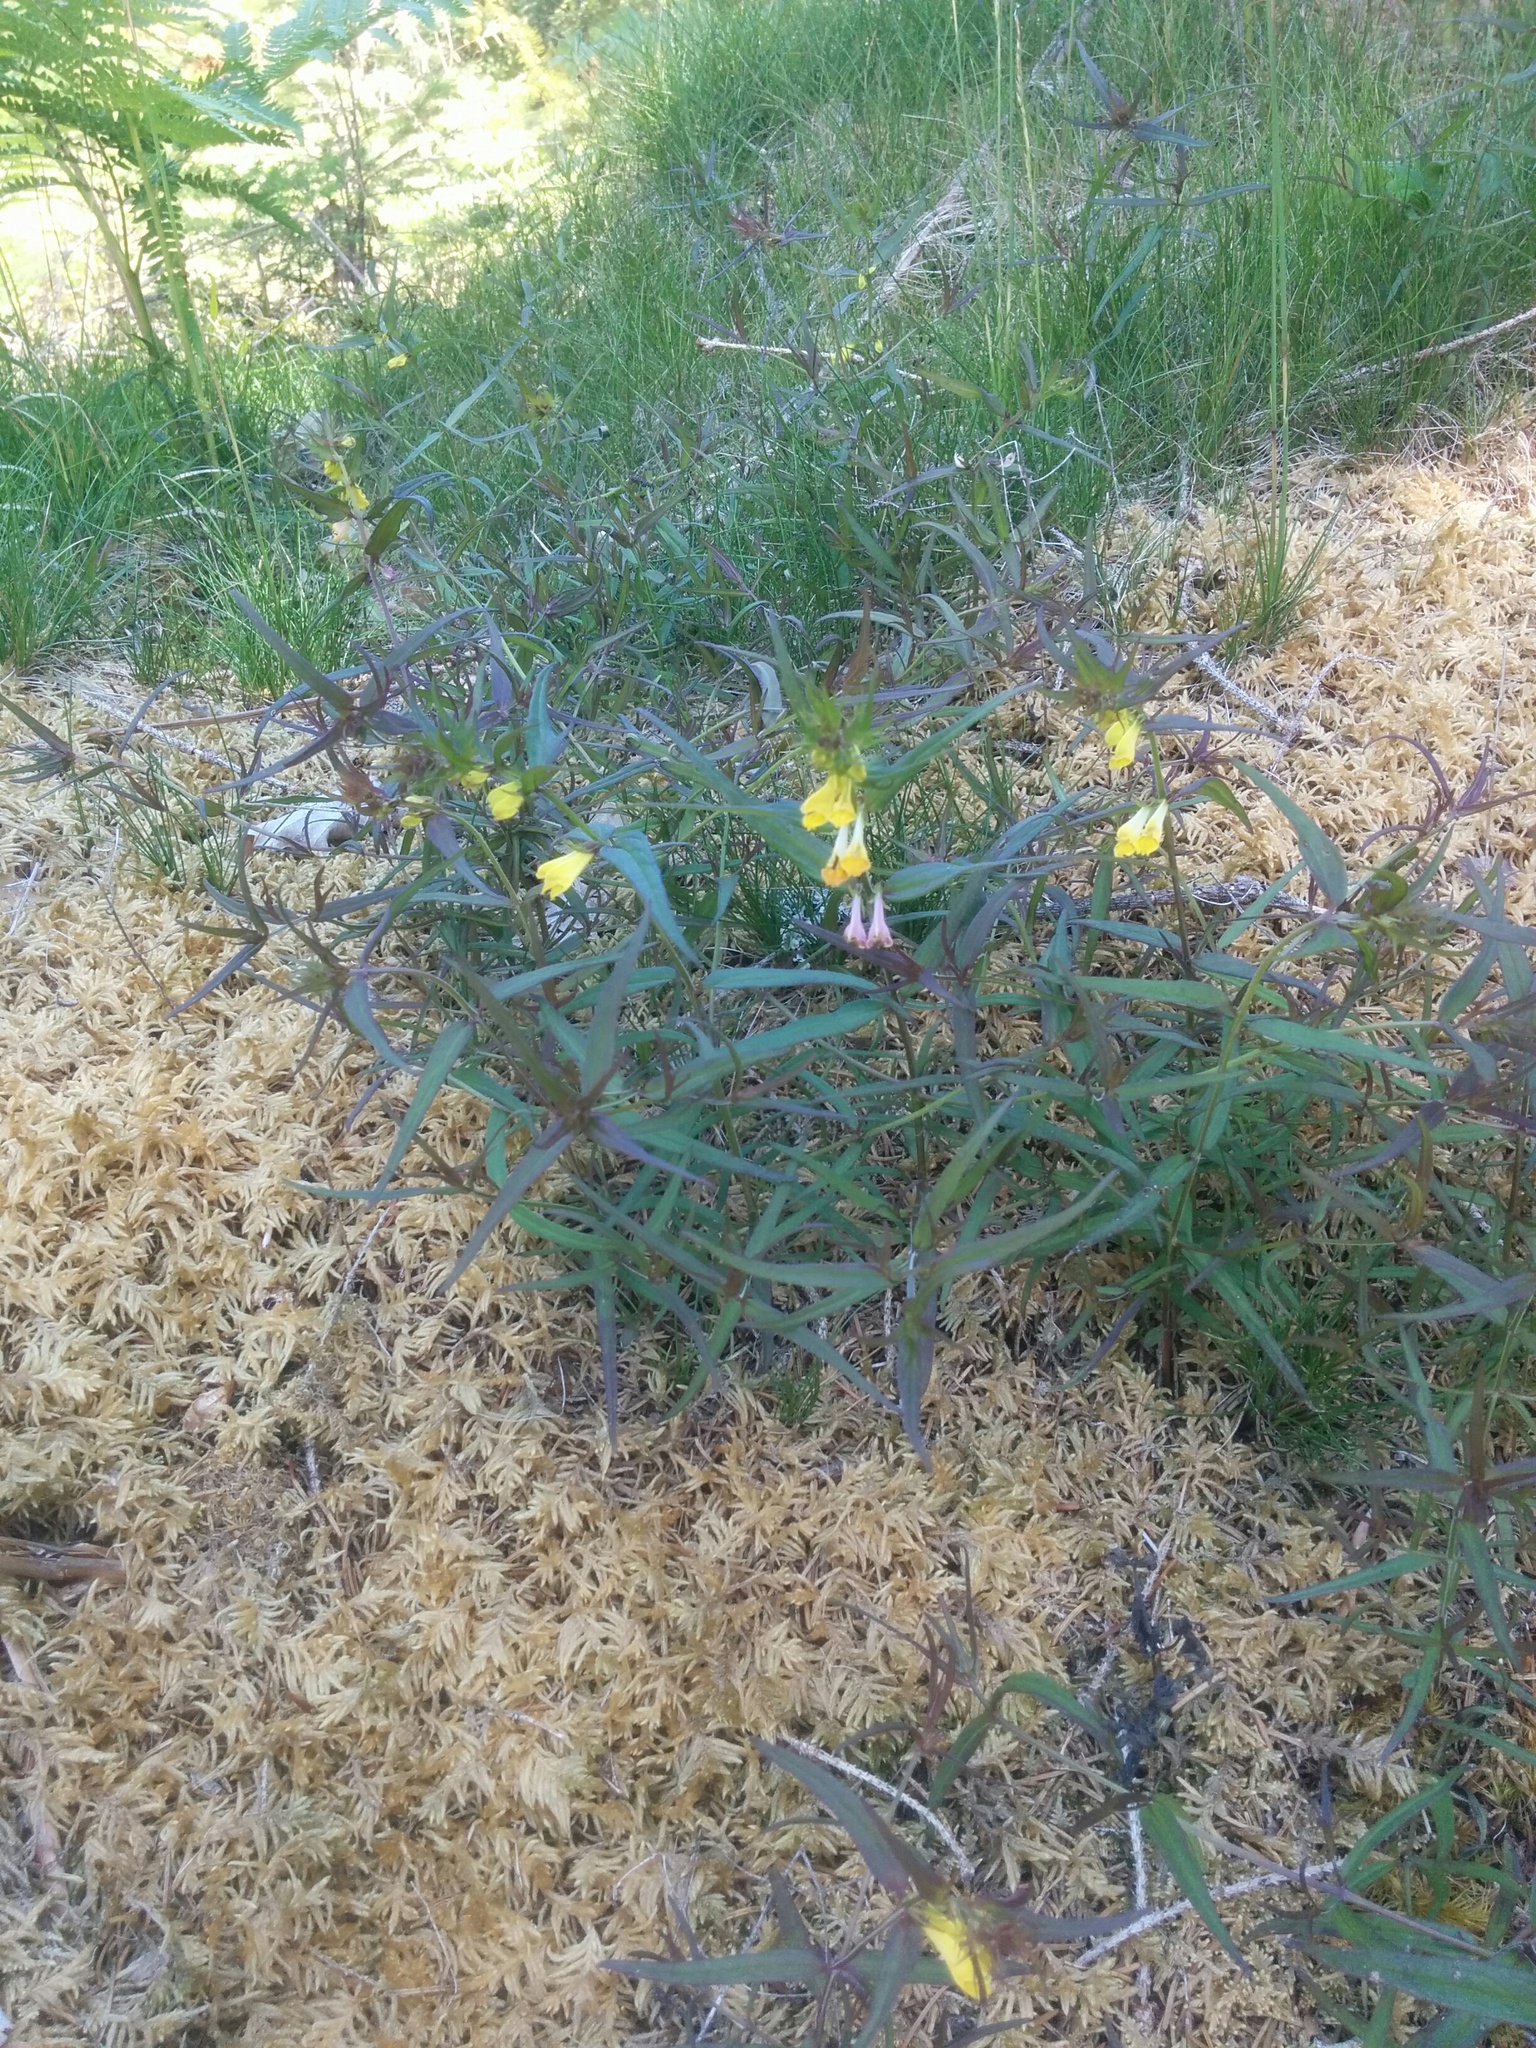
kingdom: Plantae
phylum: Tracheophyta
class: Magnoliopsida
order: Lamiales
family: Orobanchaceae
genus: Melampyrum
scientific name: Melampyrum pratense
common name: Common cow-wheat
